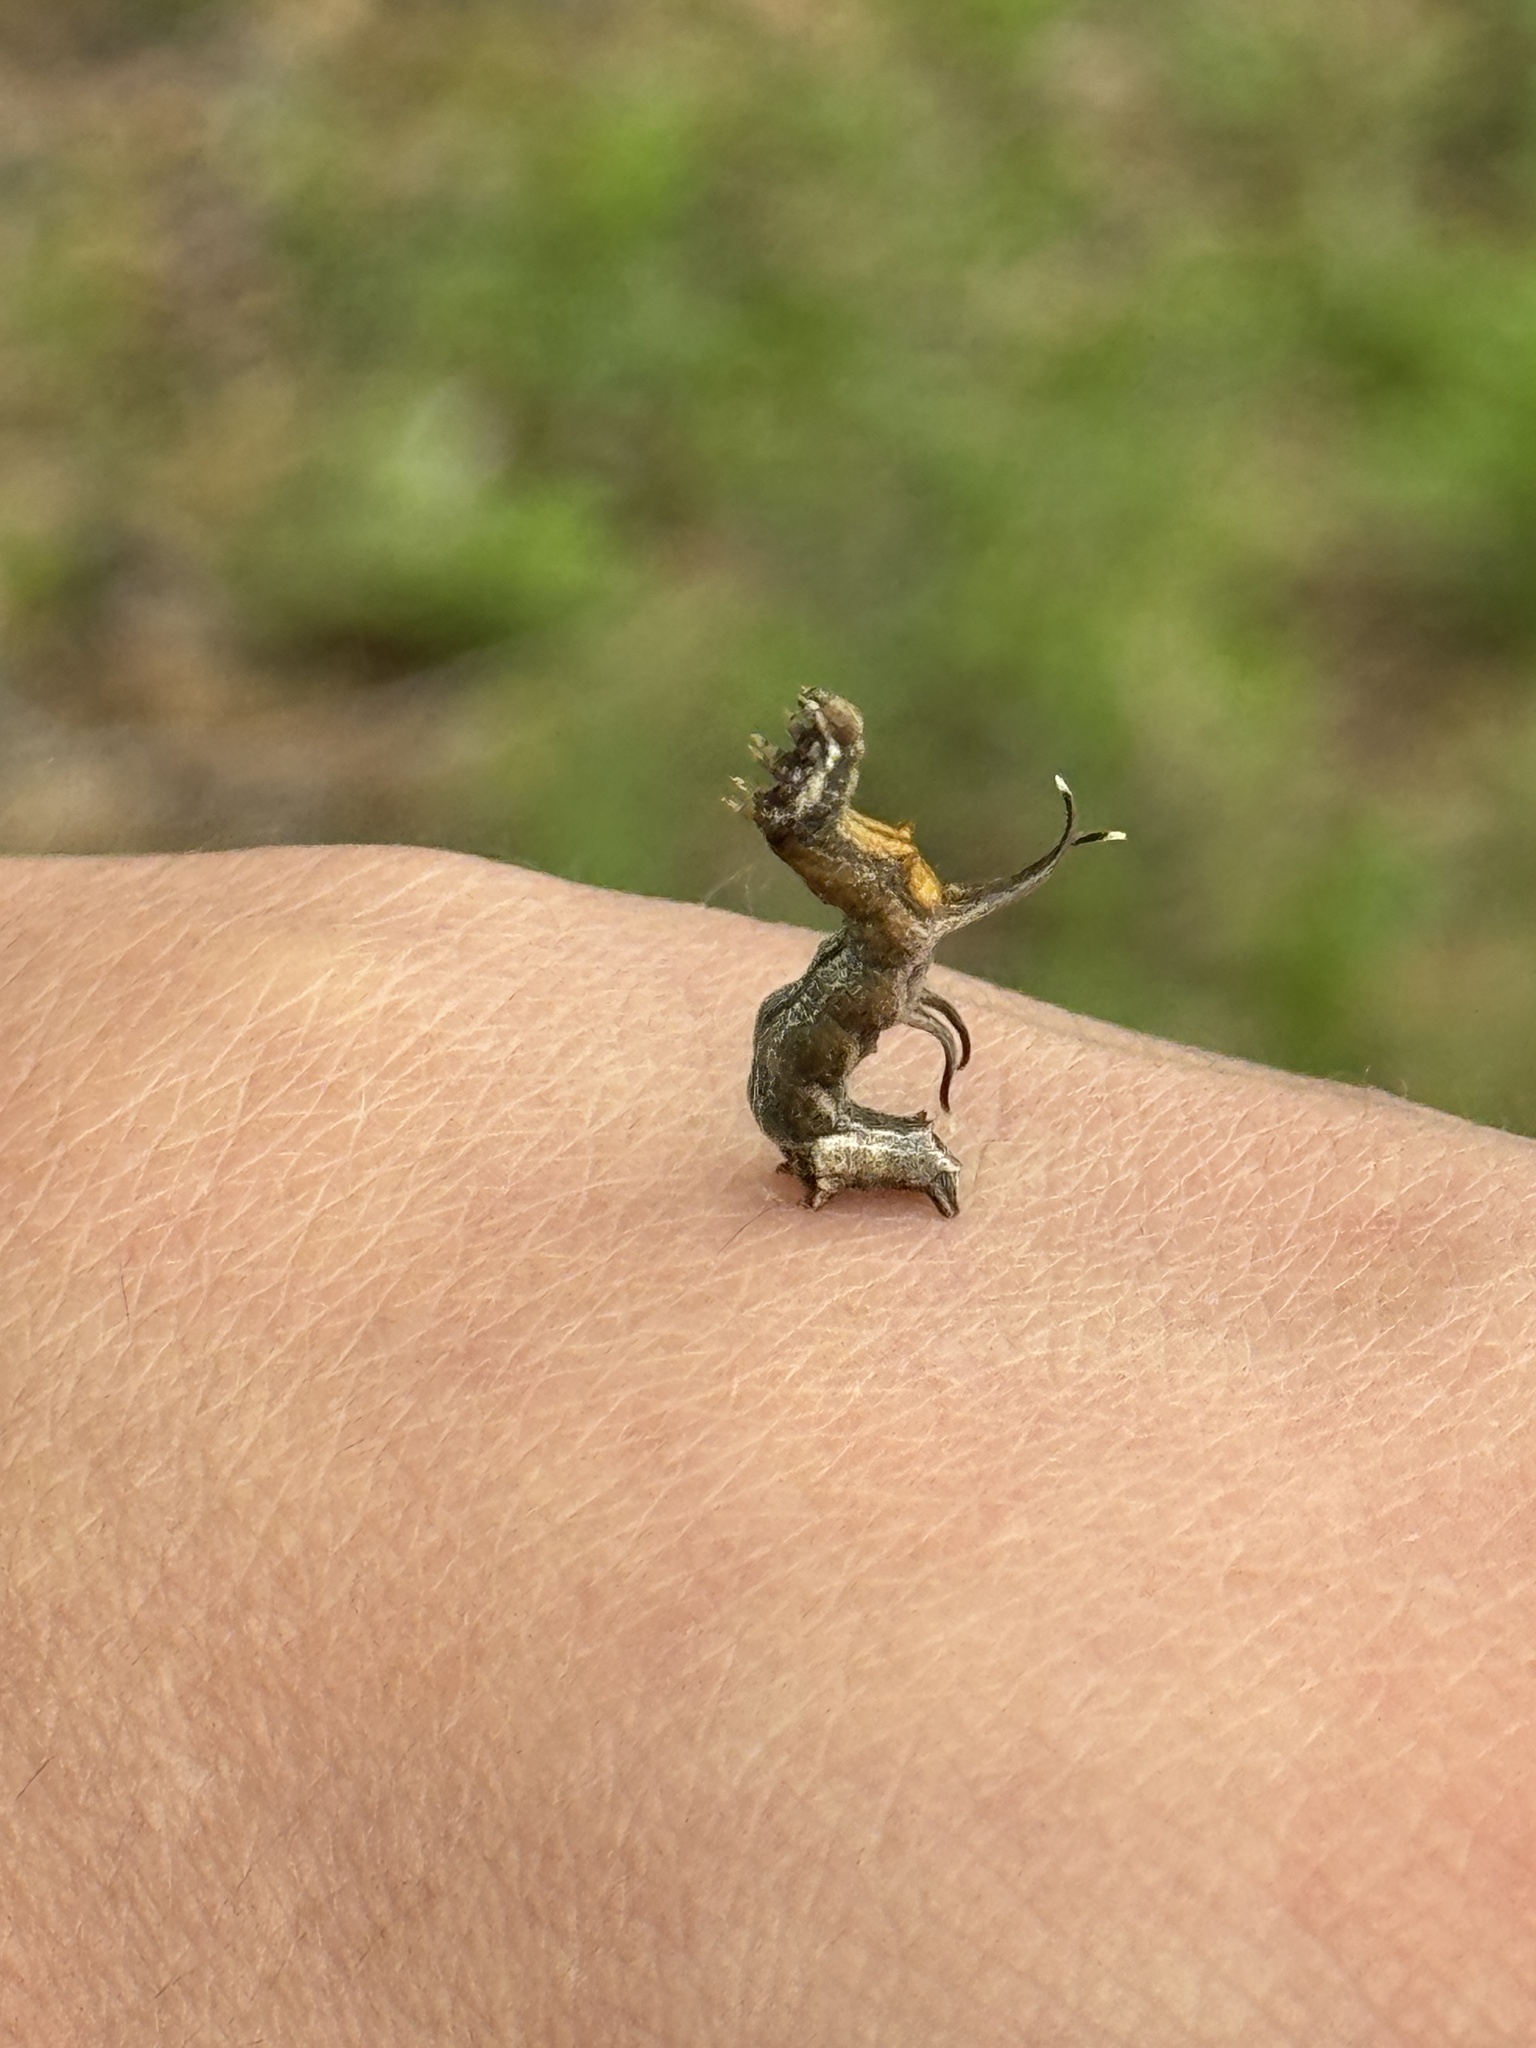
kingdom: Animalia
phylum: Arthropoda
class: Insecta
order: Lepidoptera
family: Geometridae
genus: Nematocampa
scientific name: Nematocampa resistaria
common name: Horned spanworm moth
